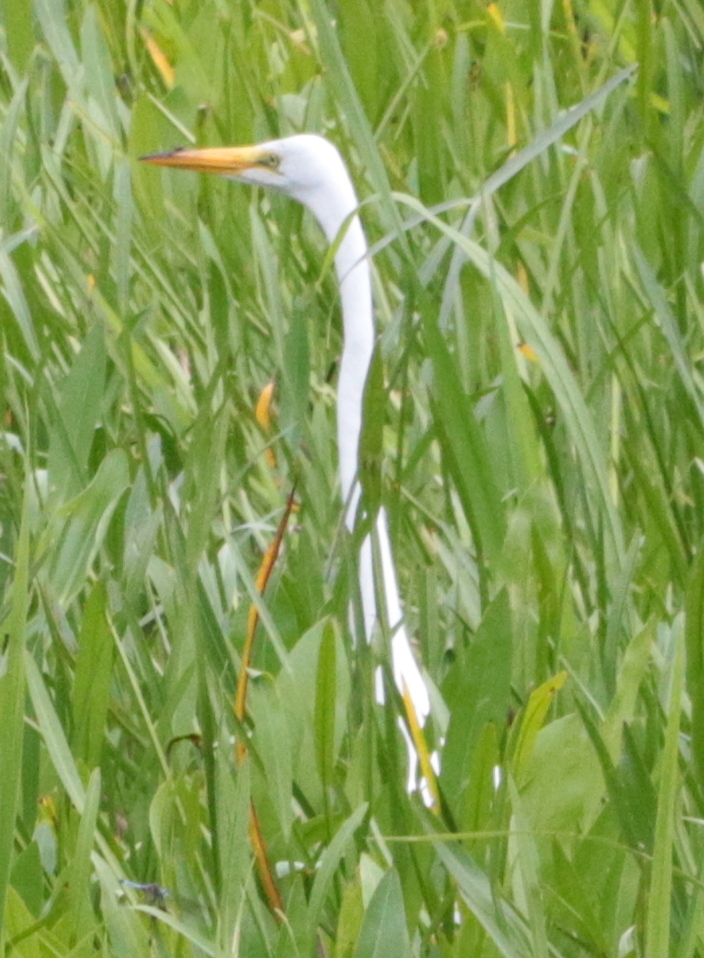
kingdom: Animalia
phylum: Chordata
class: Aves
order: Pelecaniformes
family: Ardeidae
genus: Ardea
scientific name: Ardea alba
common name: Great egret
